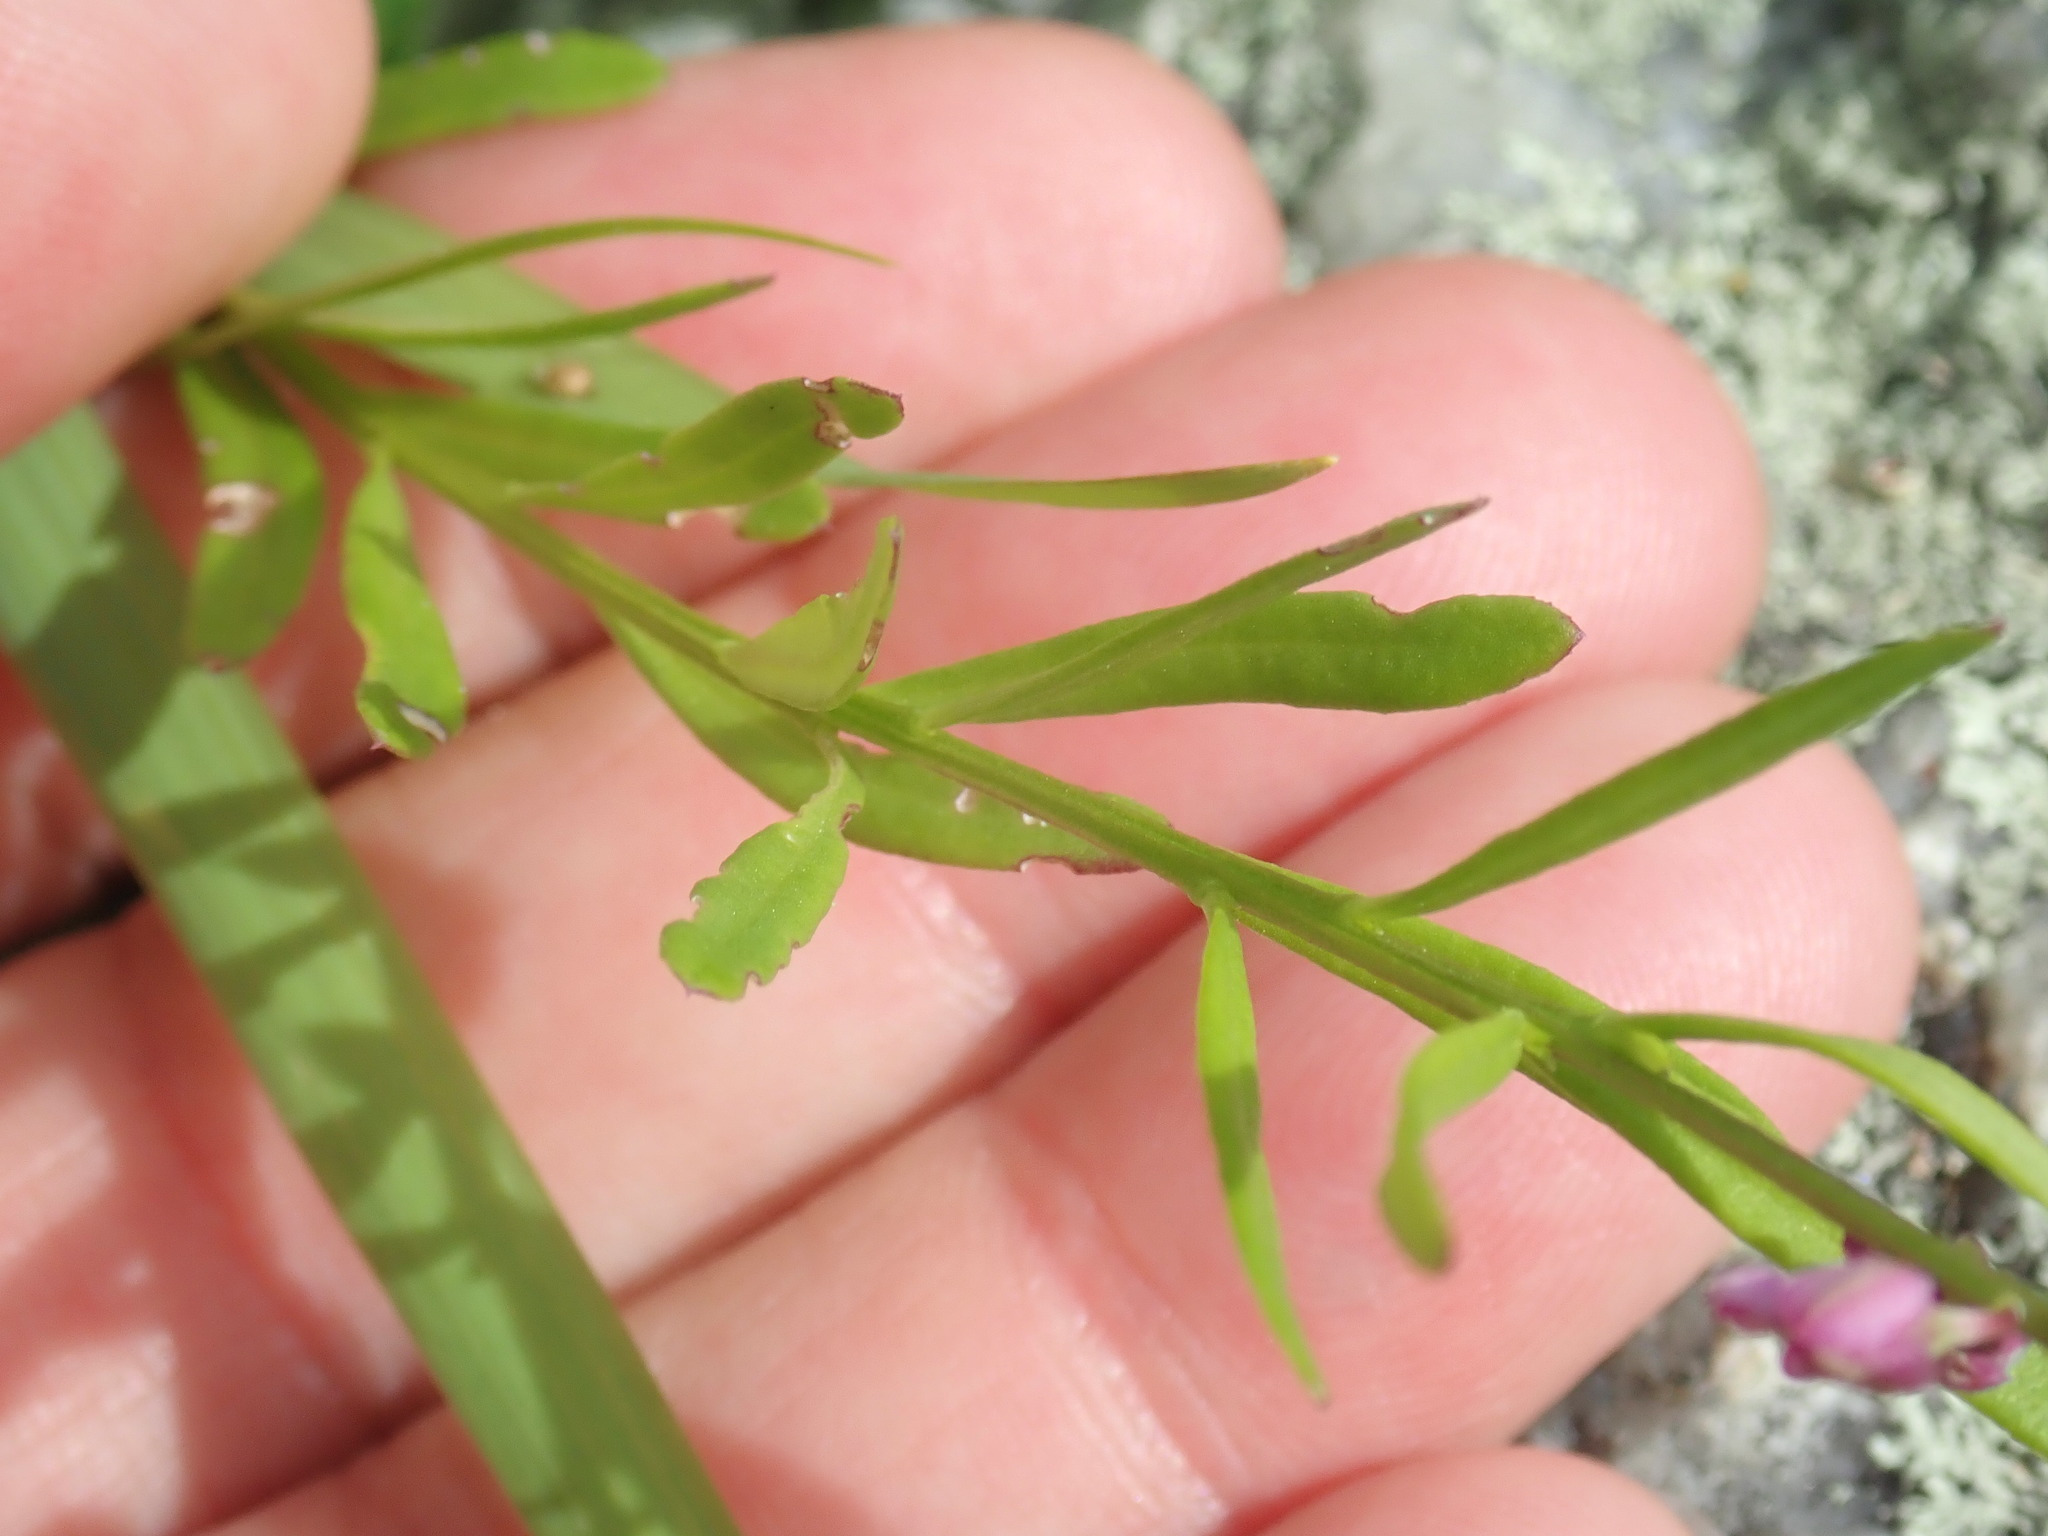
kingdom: Plantae
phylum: Tracheophyta
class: Magnoliopsida
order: Fabales
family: Polygalaceae
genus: Polygala
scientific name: Polygala polygama
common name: Bitter milkwort
